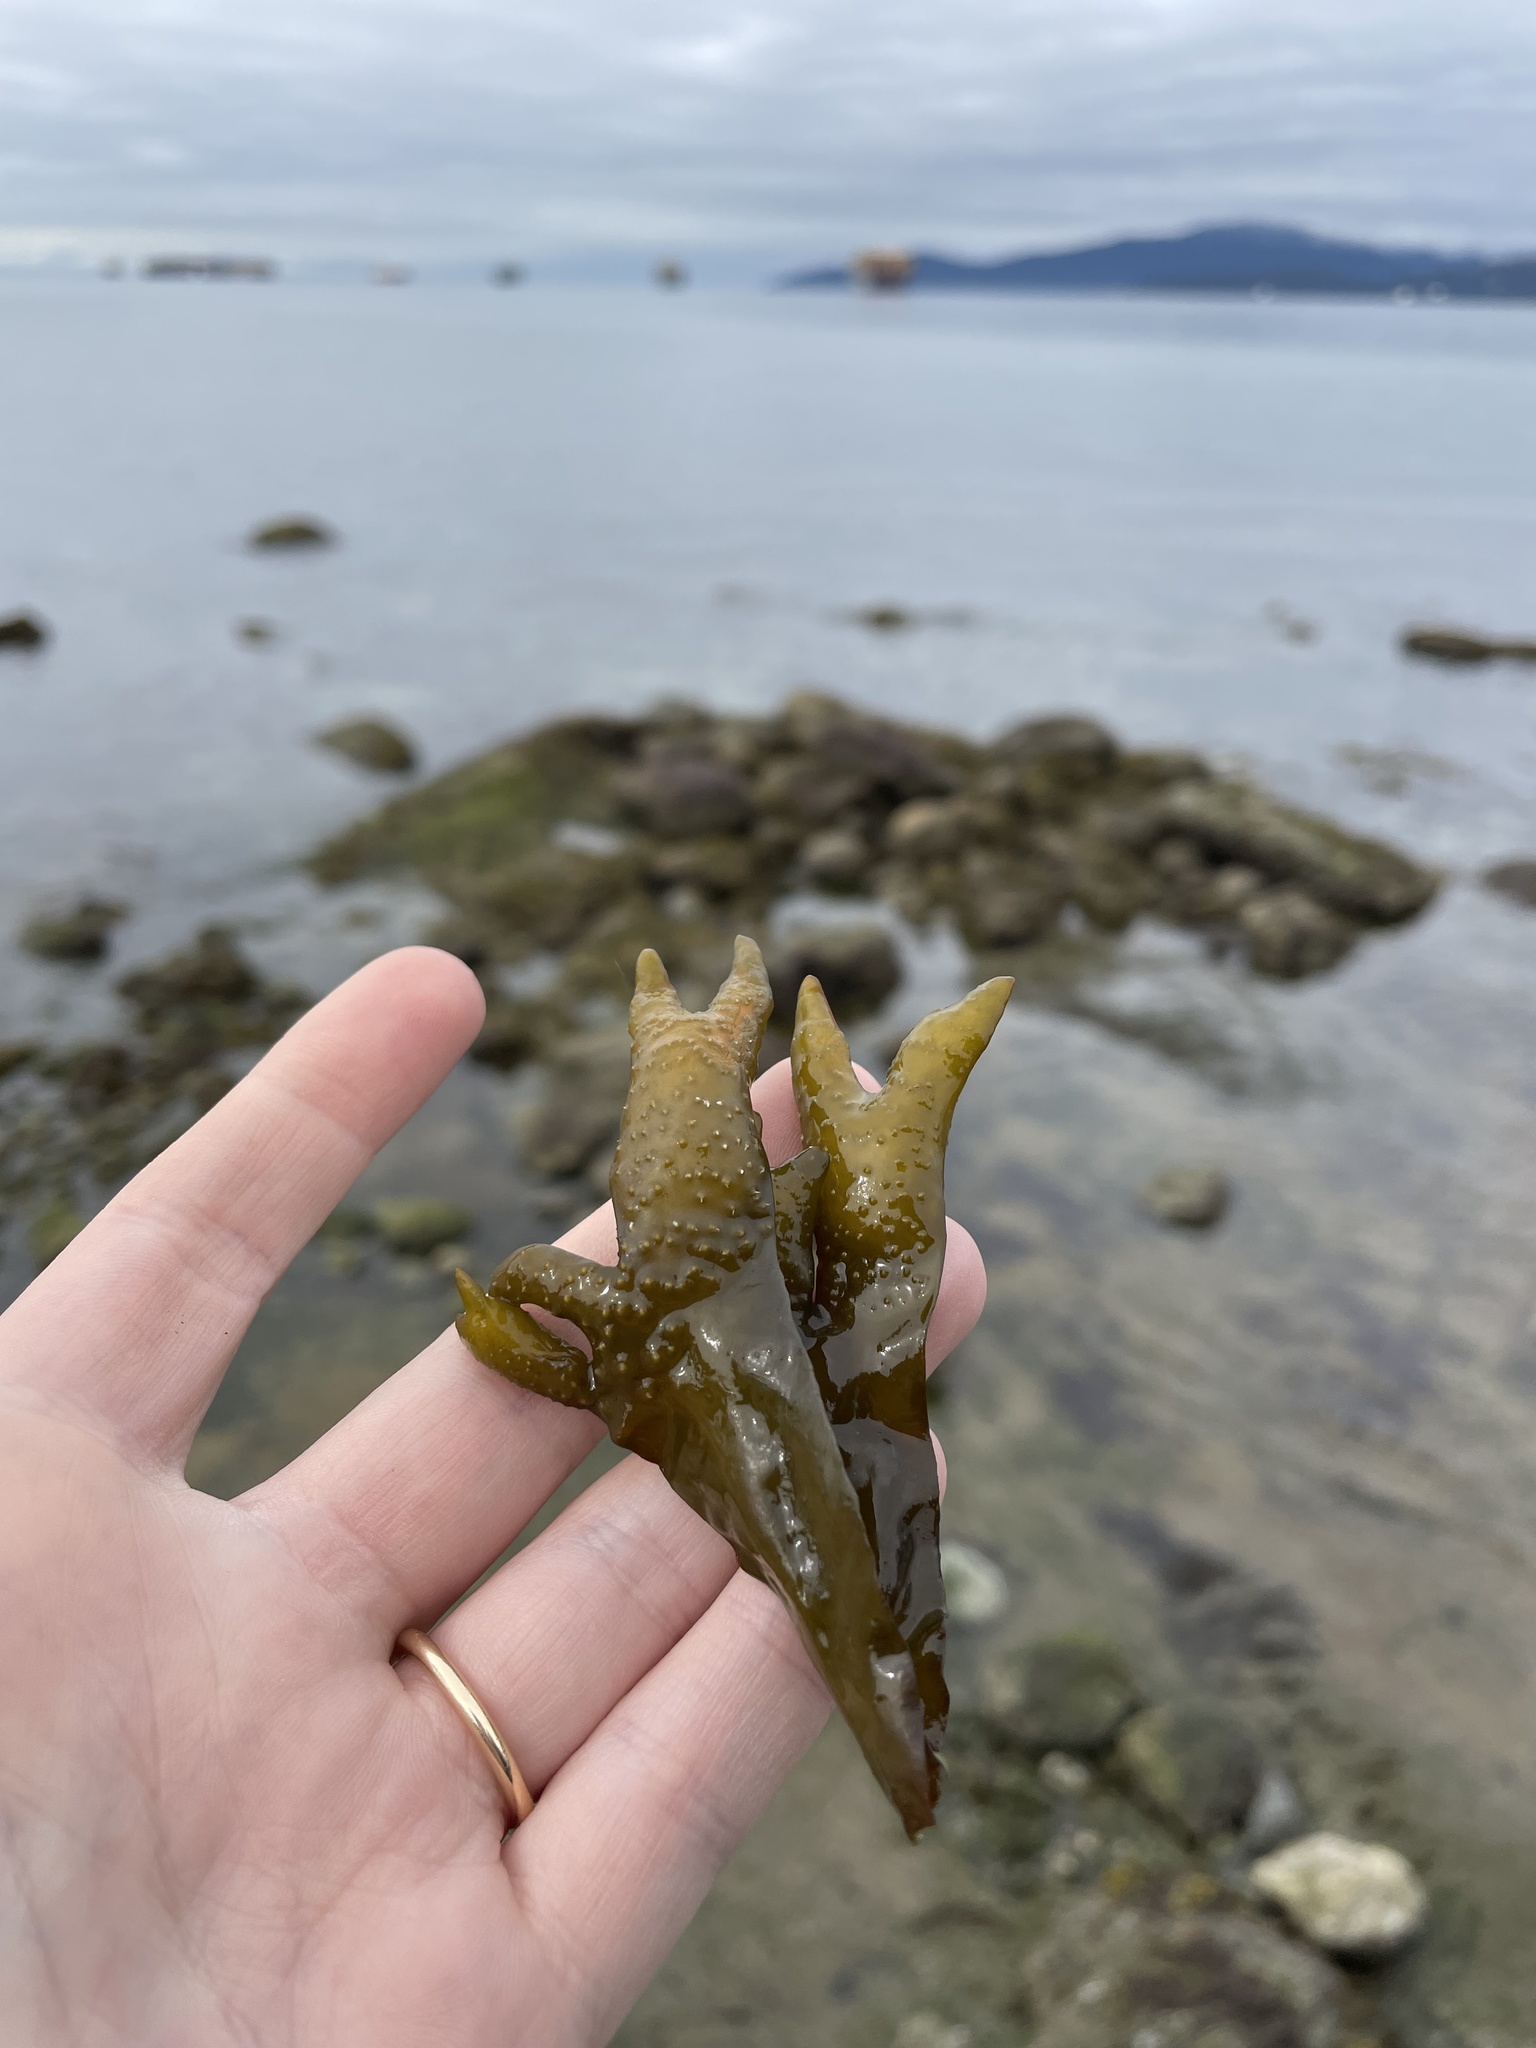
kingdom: Chromista
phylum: Ochrophyta
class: Phaeophyceae
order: Fucales
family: Fucaceae
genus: Fucus
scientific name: Fucus distichus
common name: Rockweed
